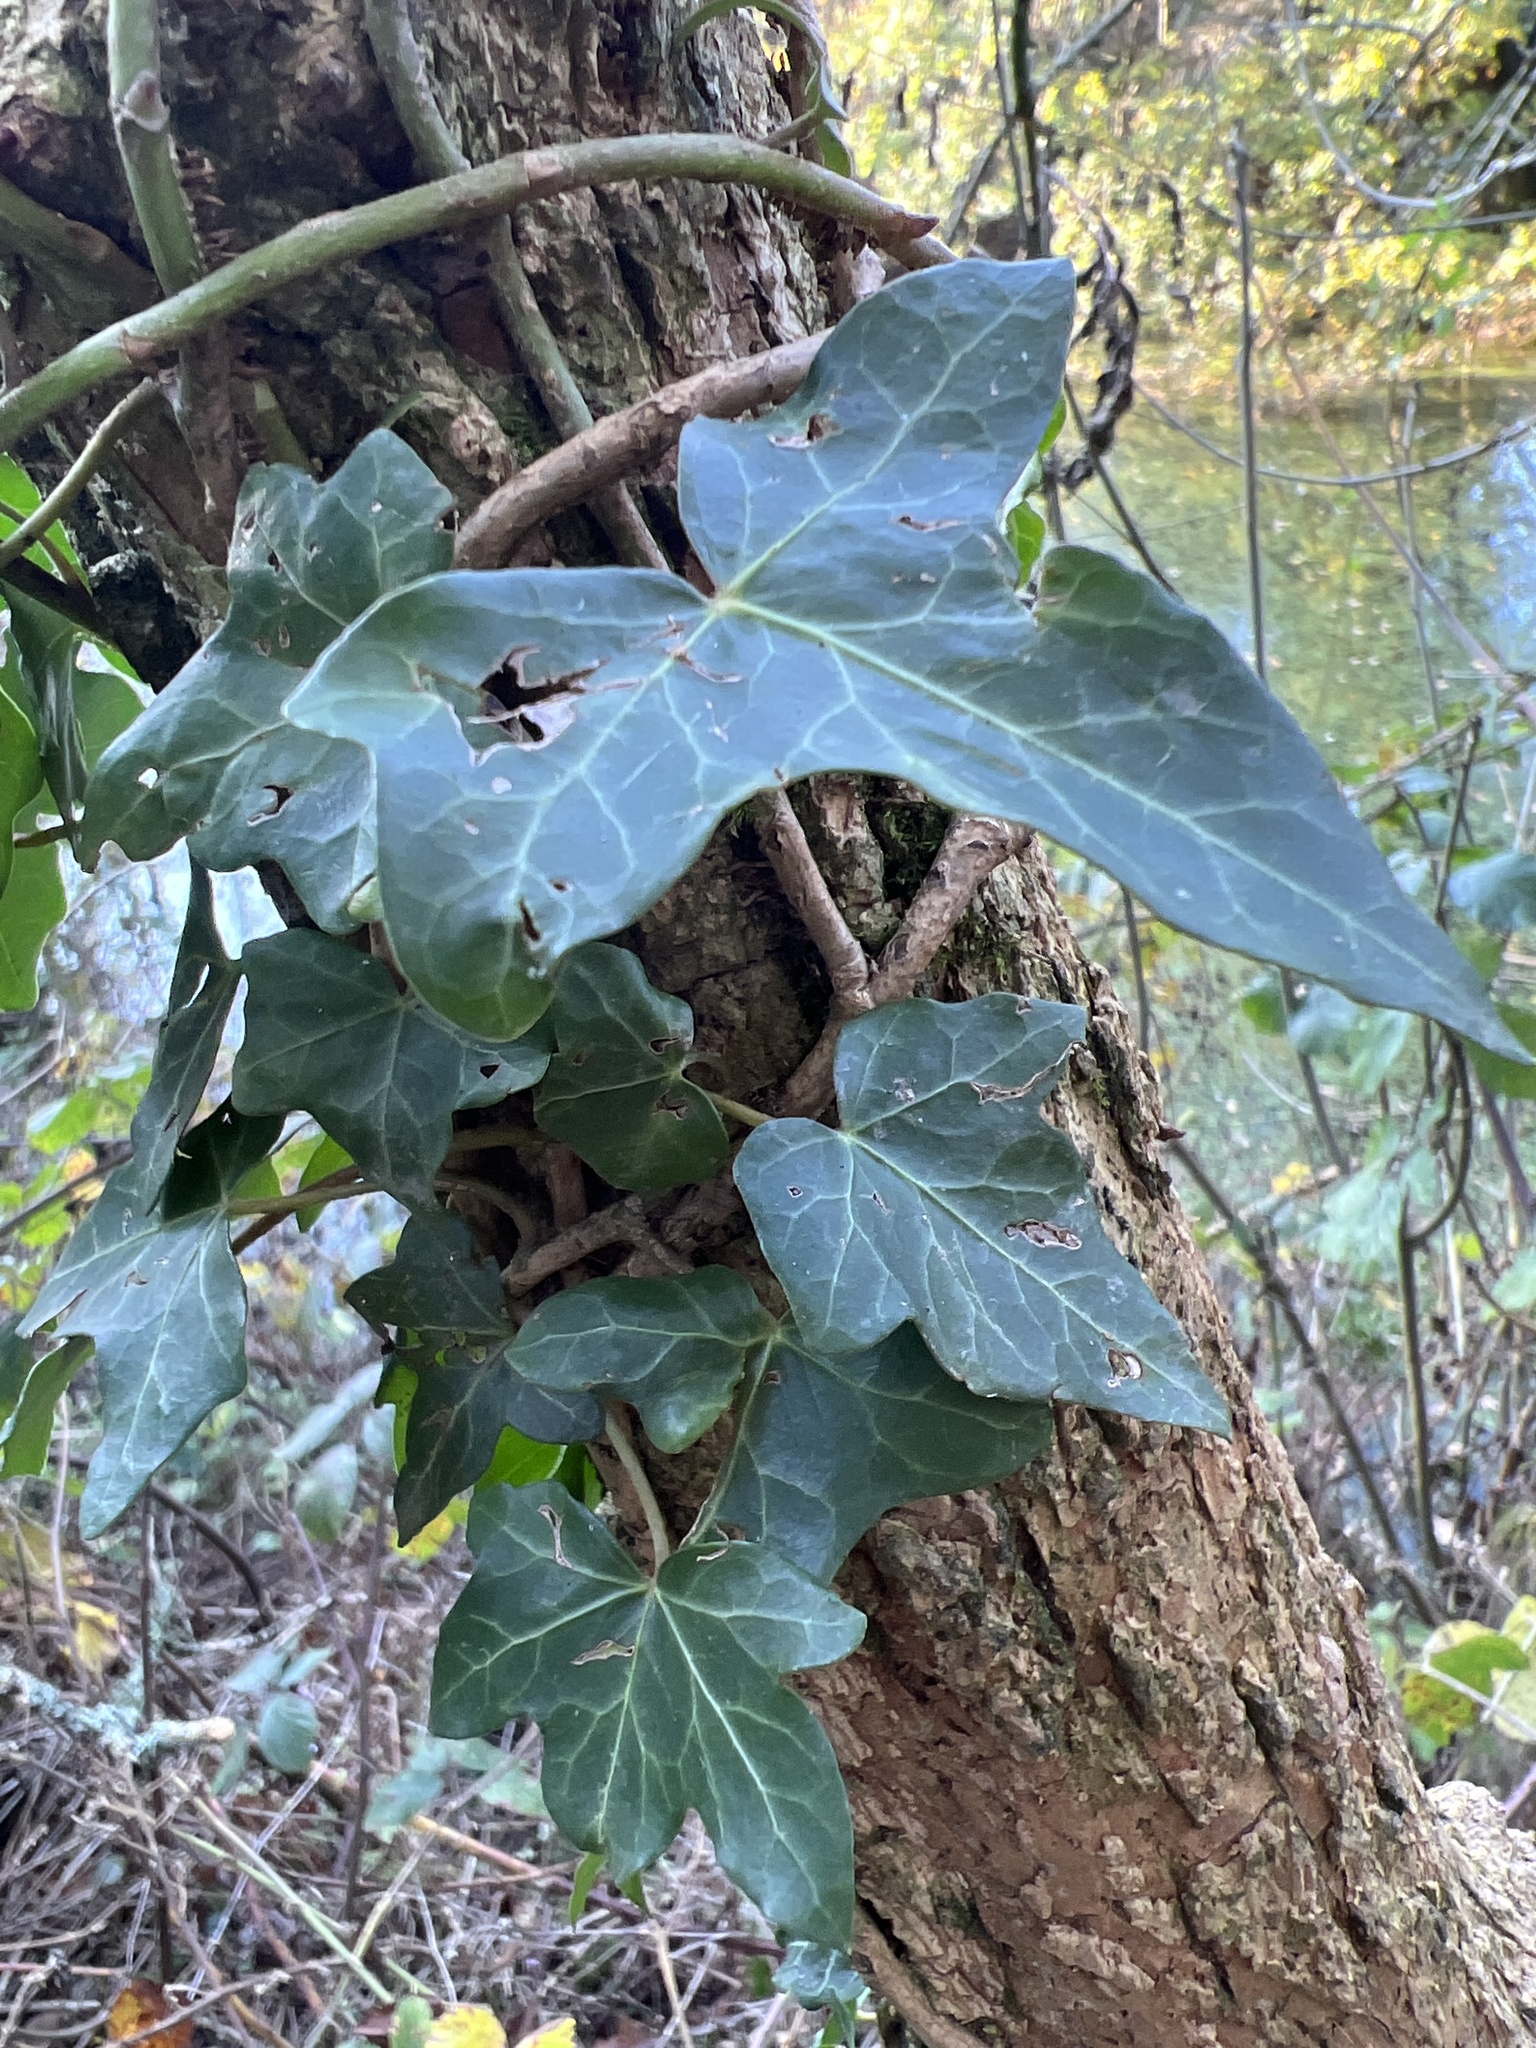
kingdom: Plantae
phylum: Tracheophyta
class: Magnoliopsida
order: Apiales
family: Araliaceae
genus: Hedera
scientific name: Hedera helix
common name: Ivy
